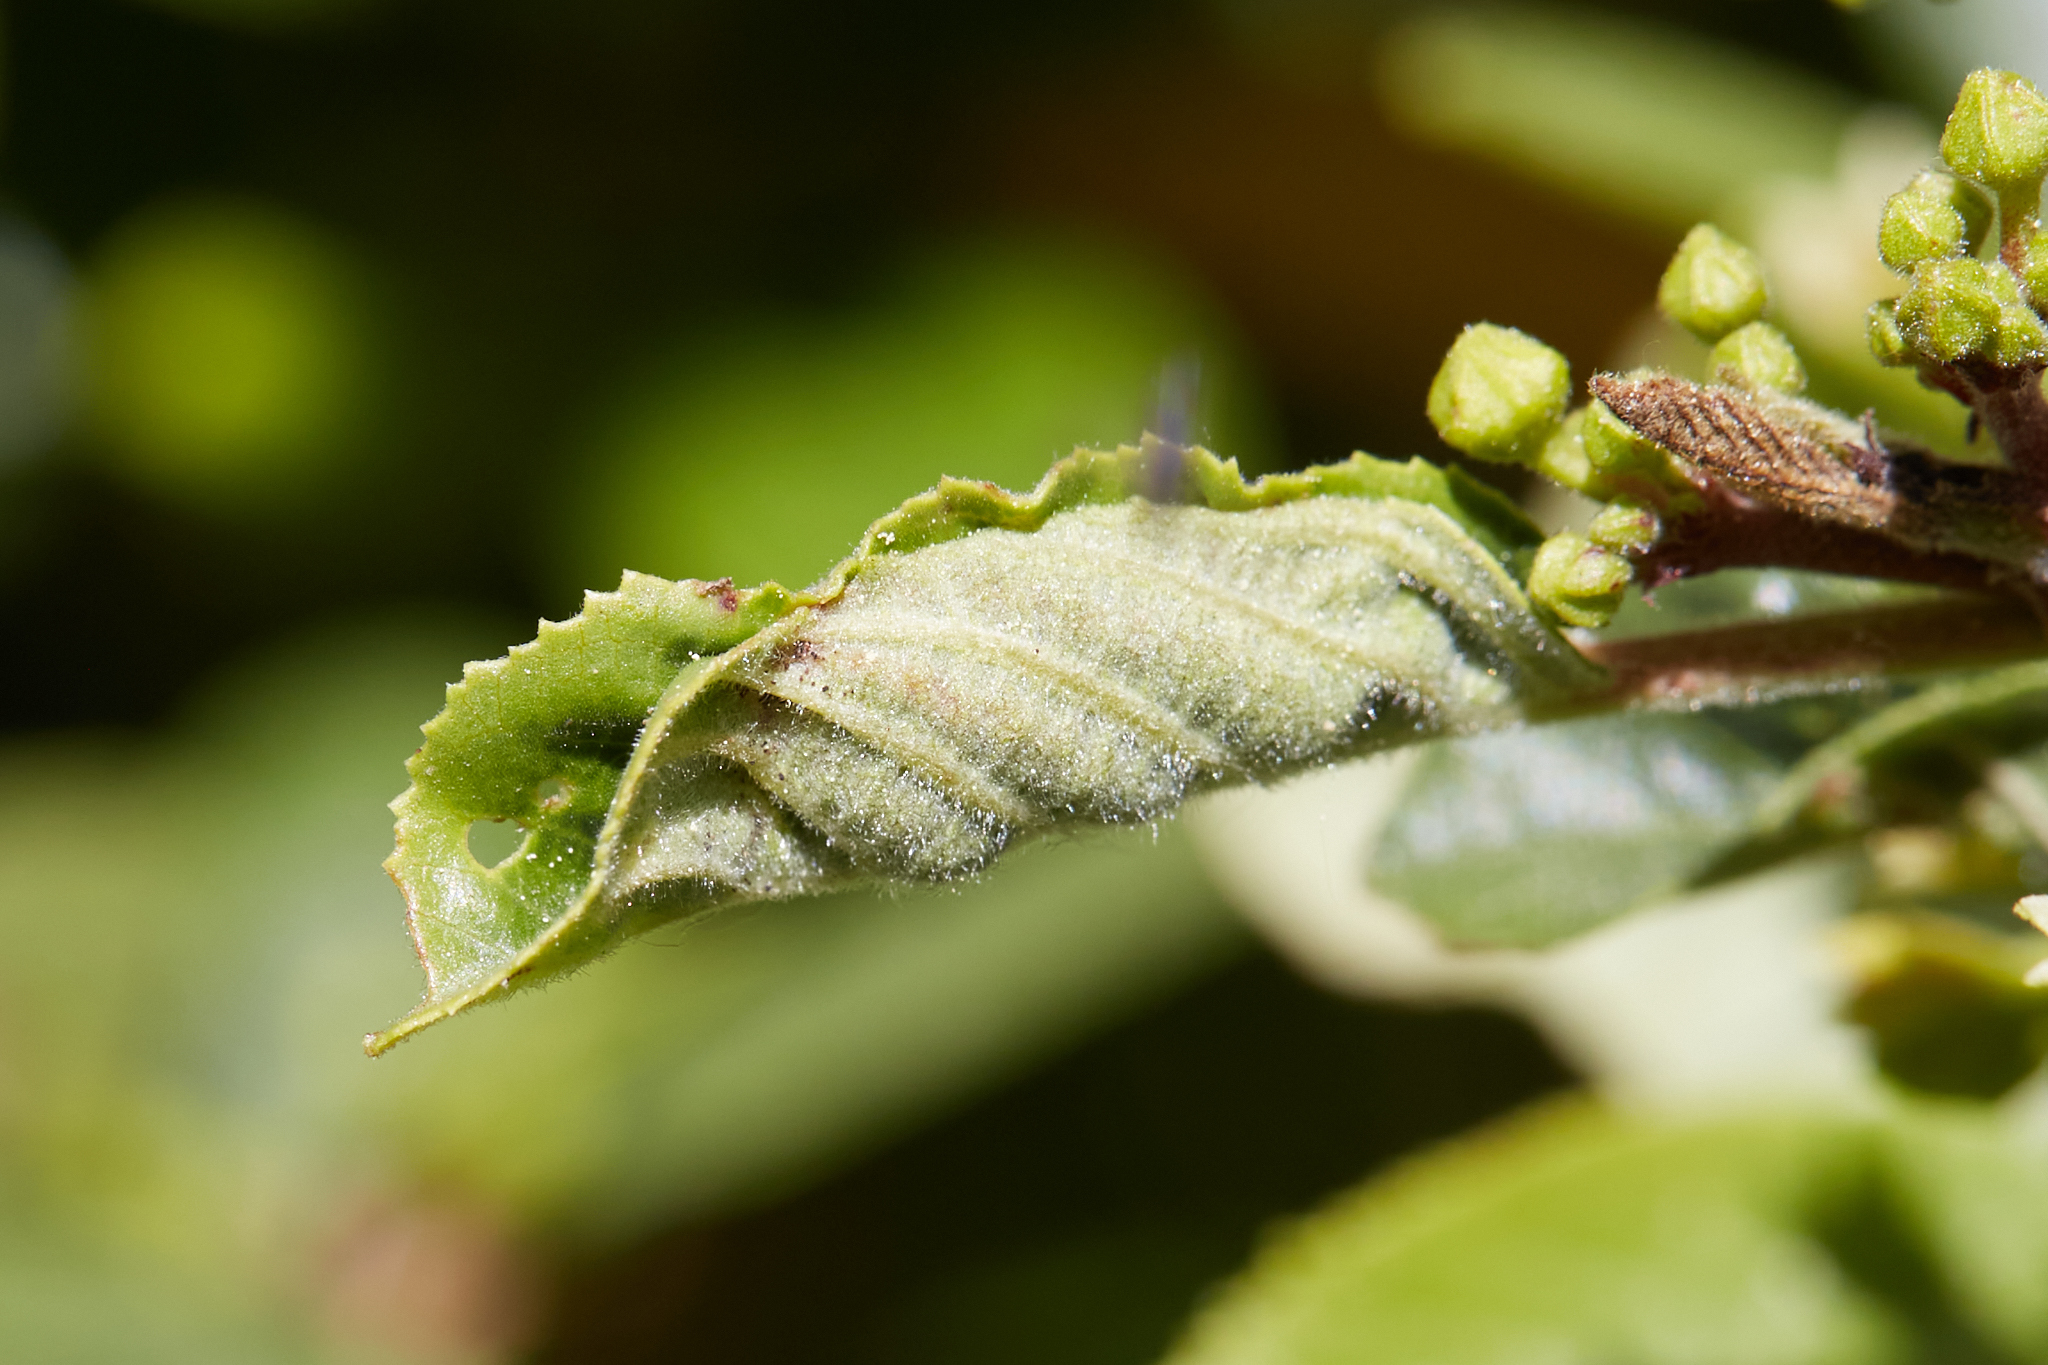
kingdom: Animalia
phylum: Arthropoda
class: Insecta
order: Lepidoptera
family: Cosmopterigidae
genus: Sorhagenia
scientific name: Sorhagenia nimbosus
